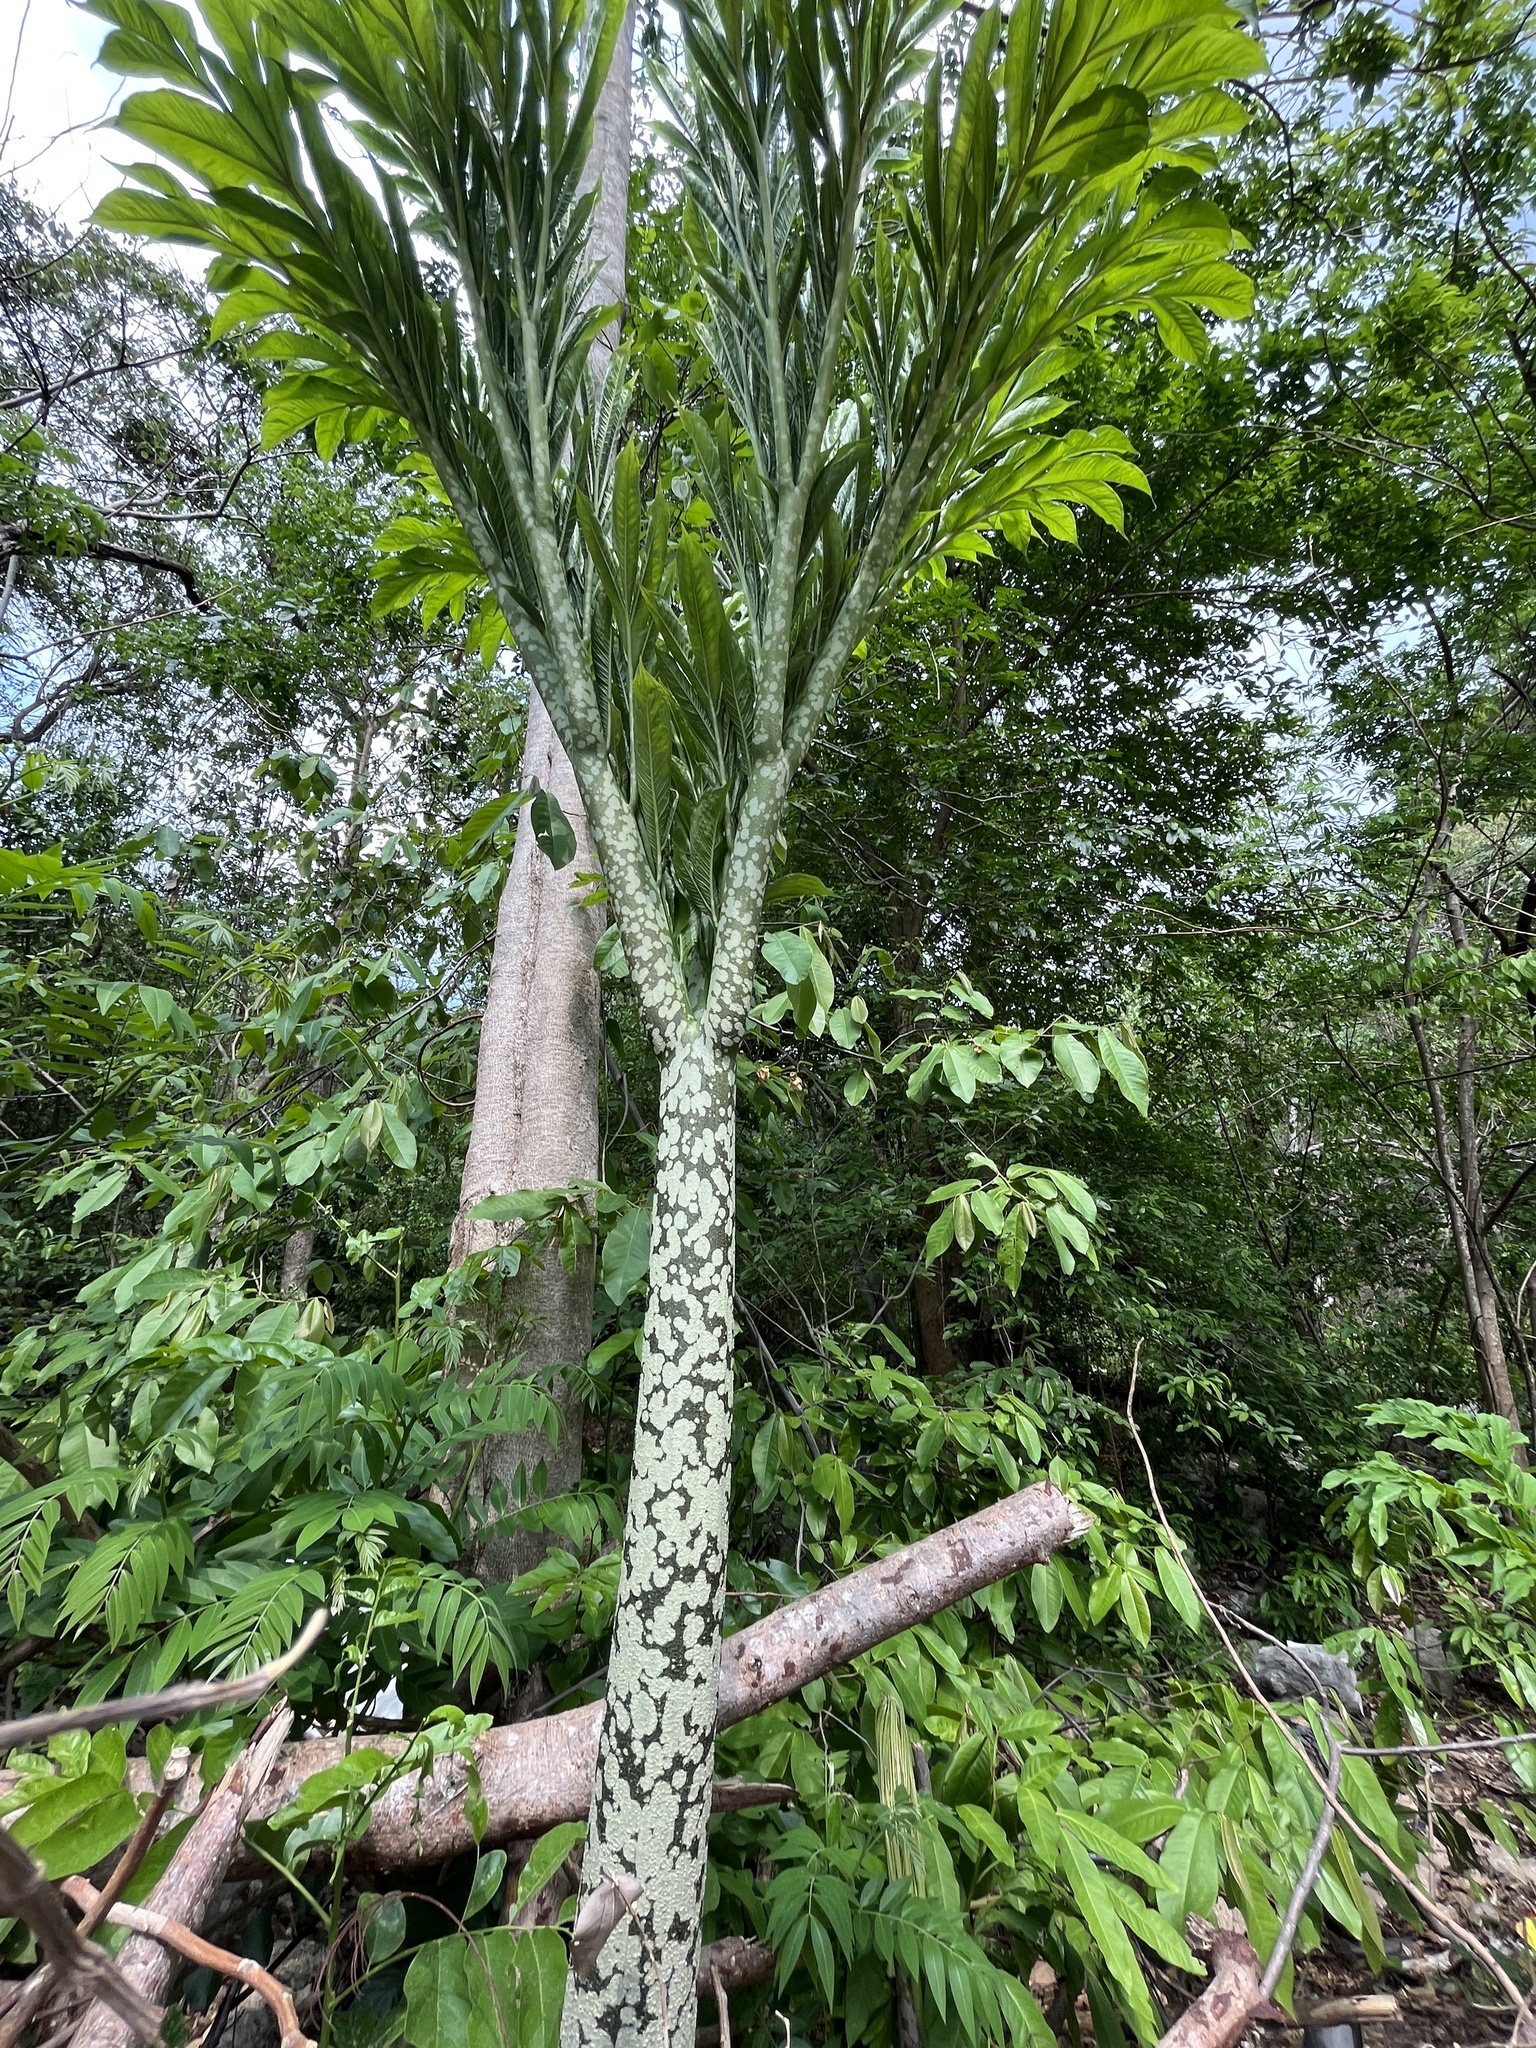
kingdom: Plantae
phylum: Tracheophyta
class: Liliopsida
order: Alismatales
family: Araceae
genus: Amorphophallus
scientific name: Amorphophallus paeoniifolius
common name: Telinga-potato
